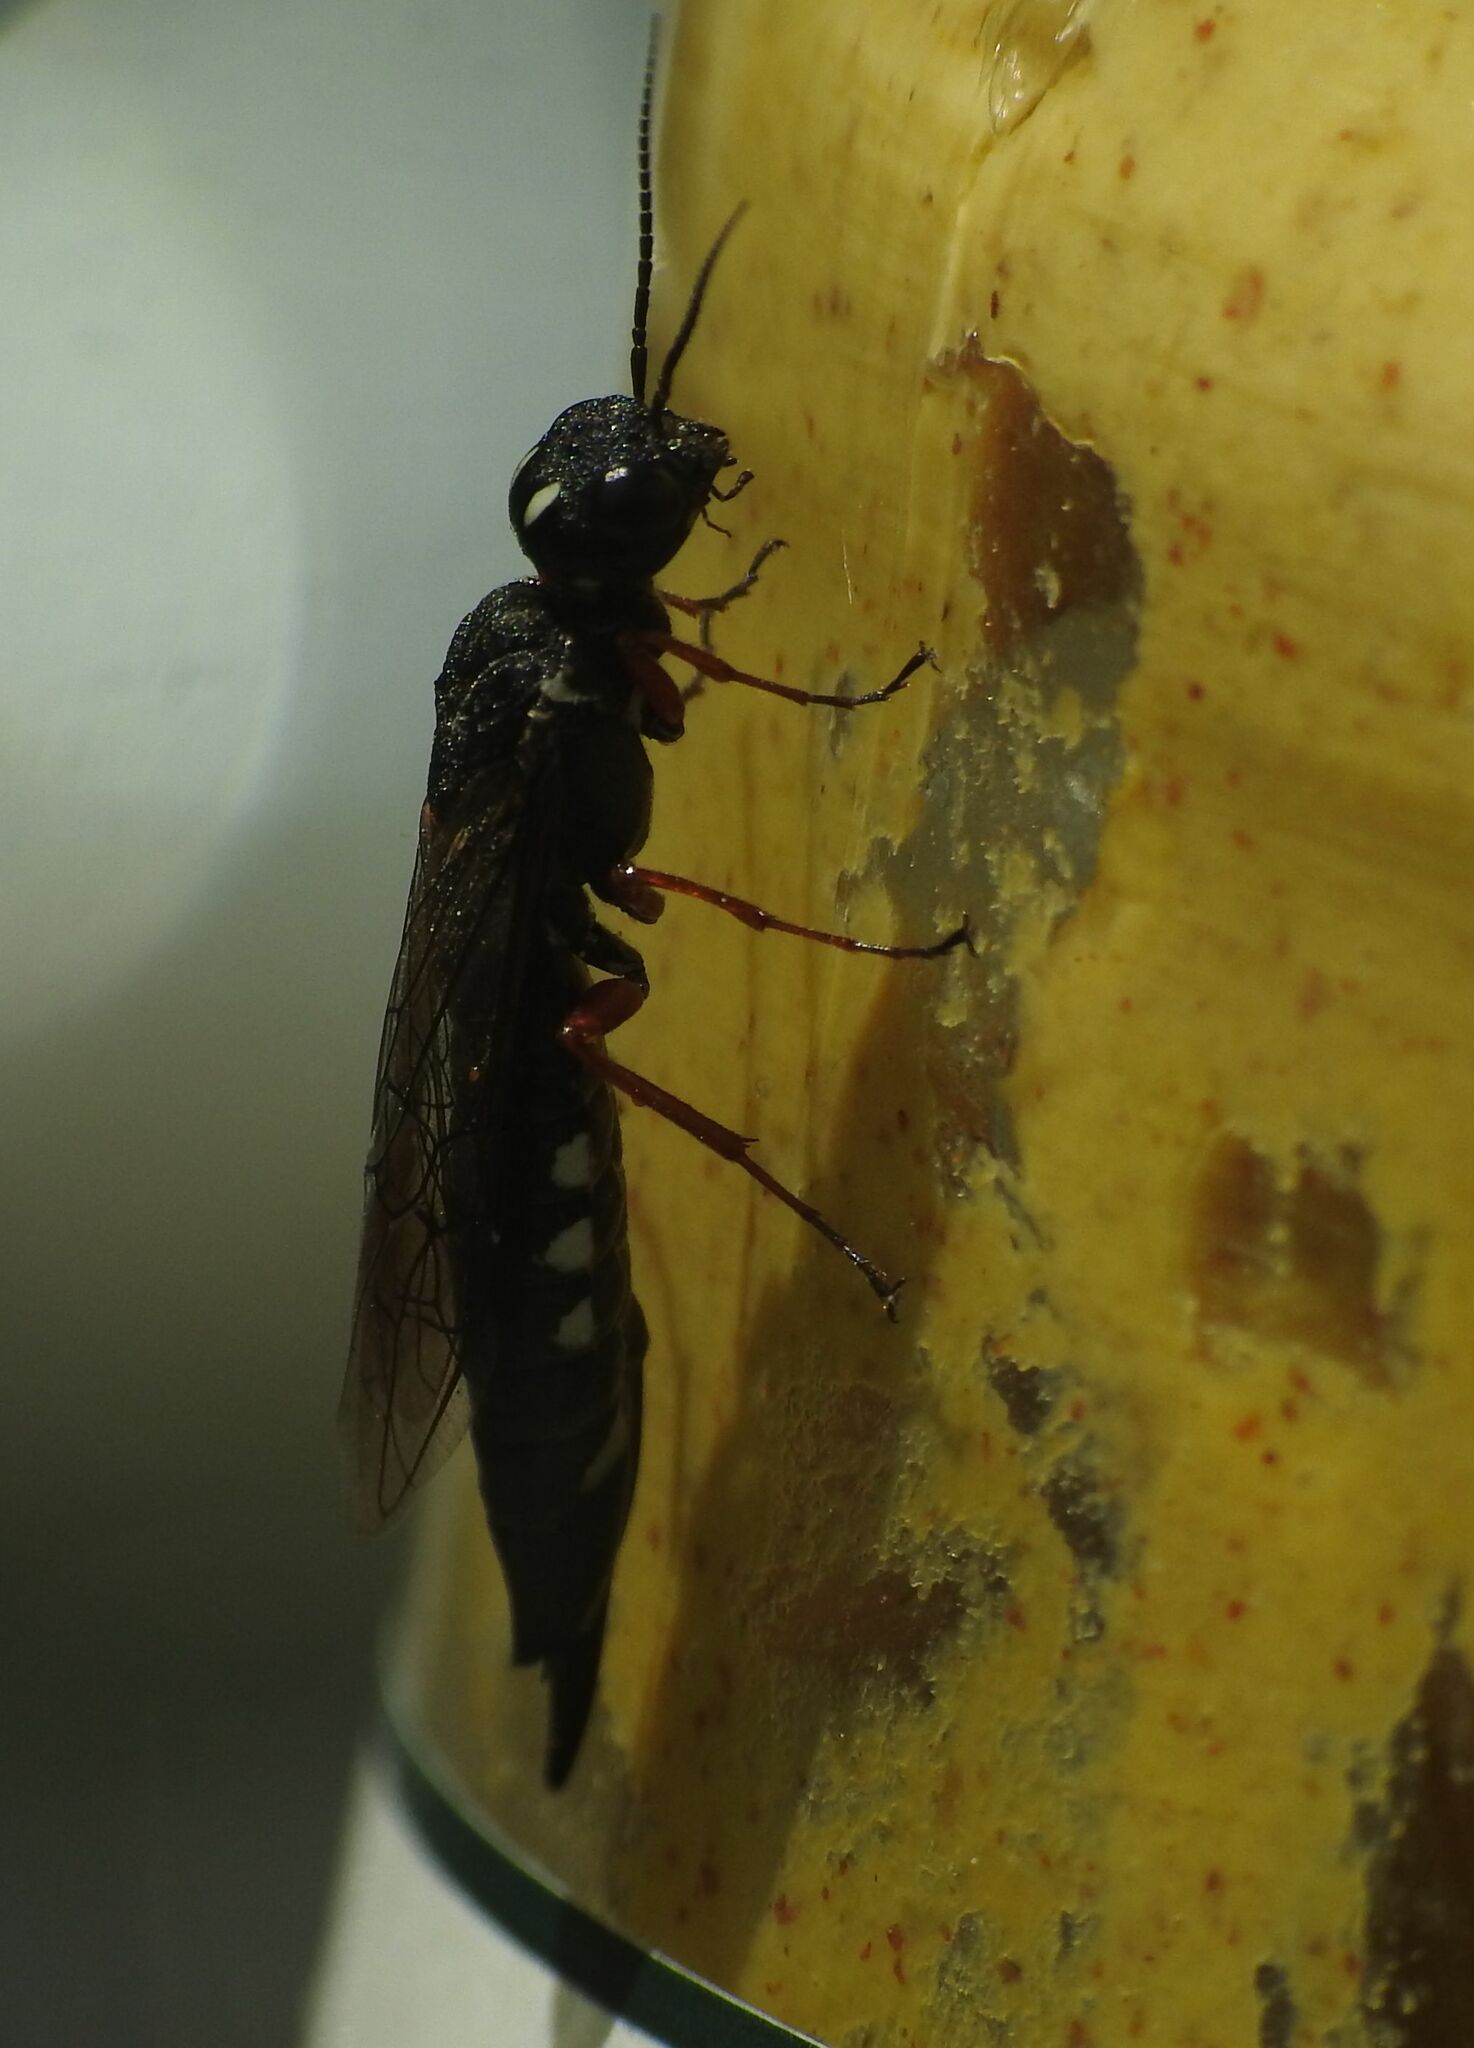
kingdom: Animalia
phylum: Arthropoda
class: Insecta
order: Hymenoptera
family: Xiphydriidae
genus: Xiphydria
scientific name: Xiphydria camelus
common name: Alder wood-wasp
